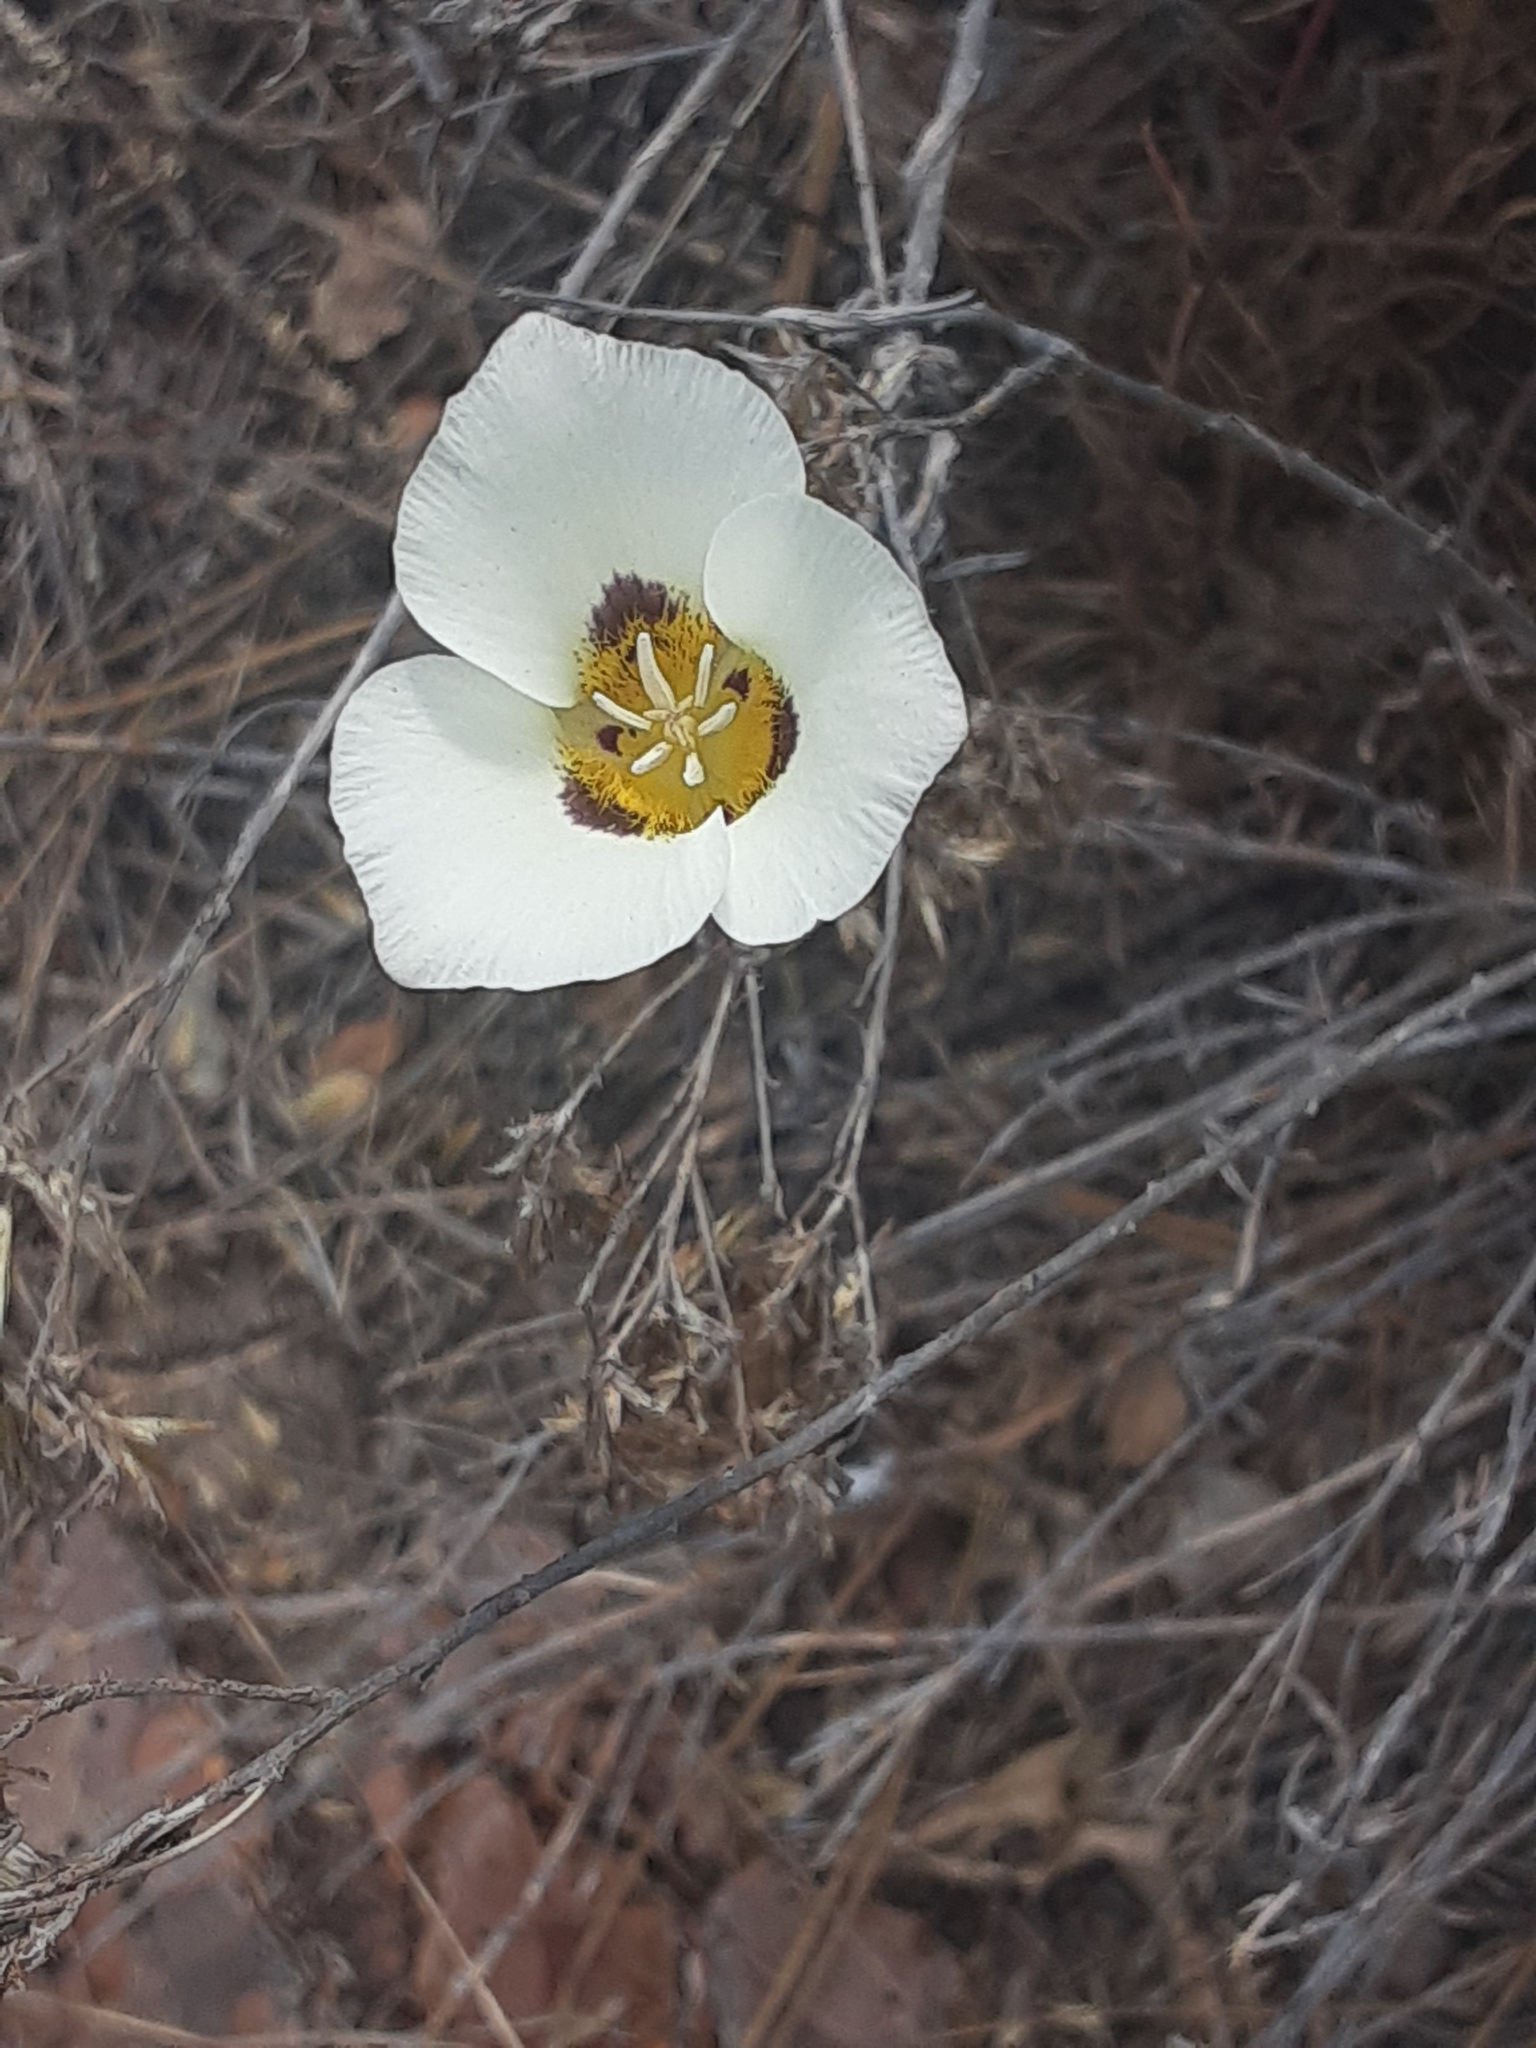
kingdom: Plantae
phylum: Tracheophyta
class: Liliopsida
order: Liliales
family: Liliaceae
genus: Calochortus
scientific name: Calochortus leichtlinii
